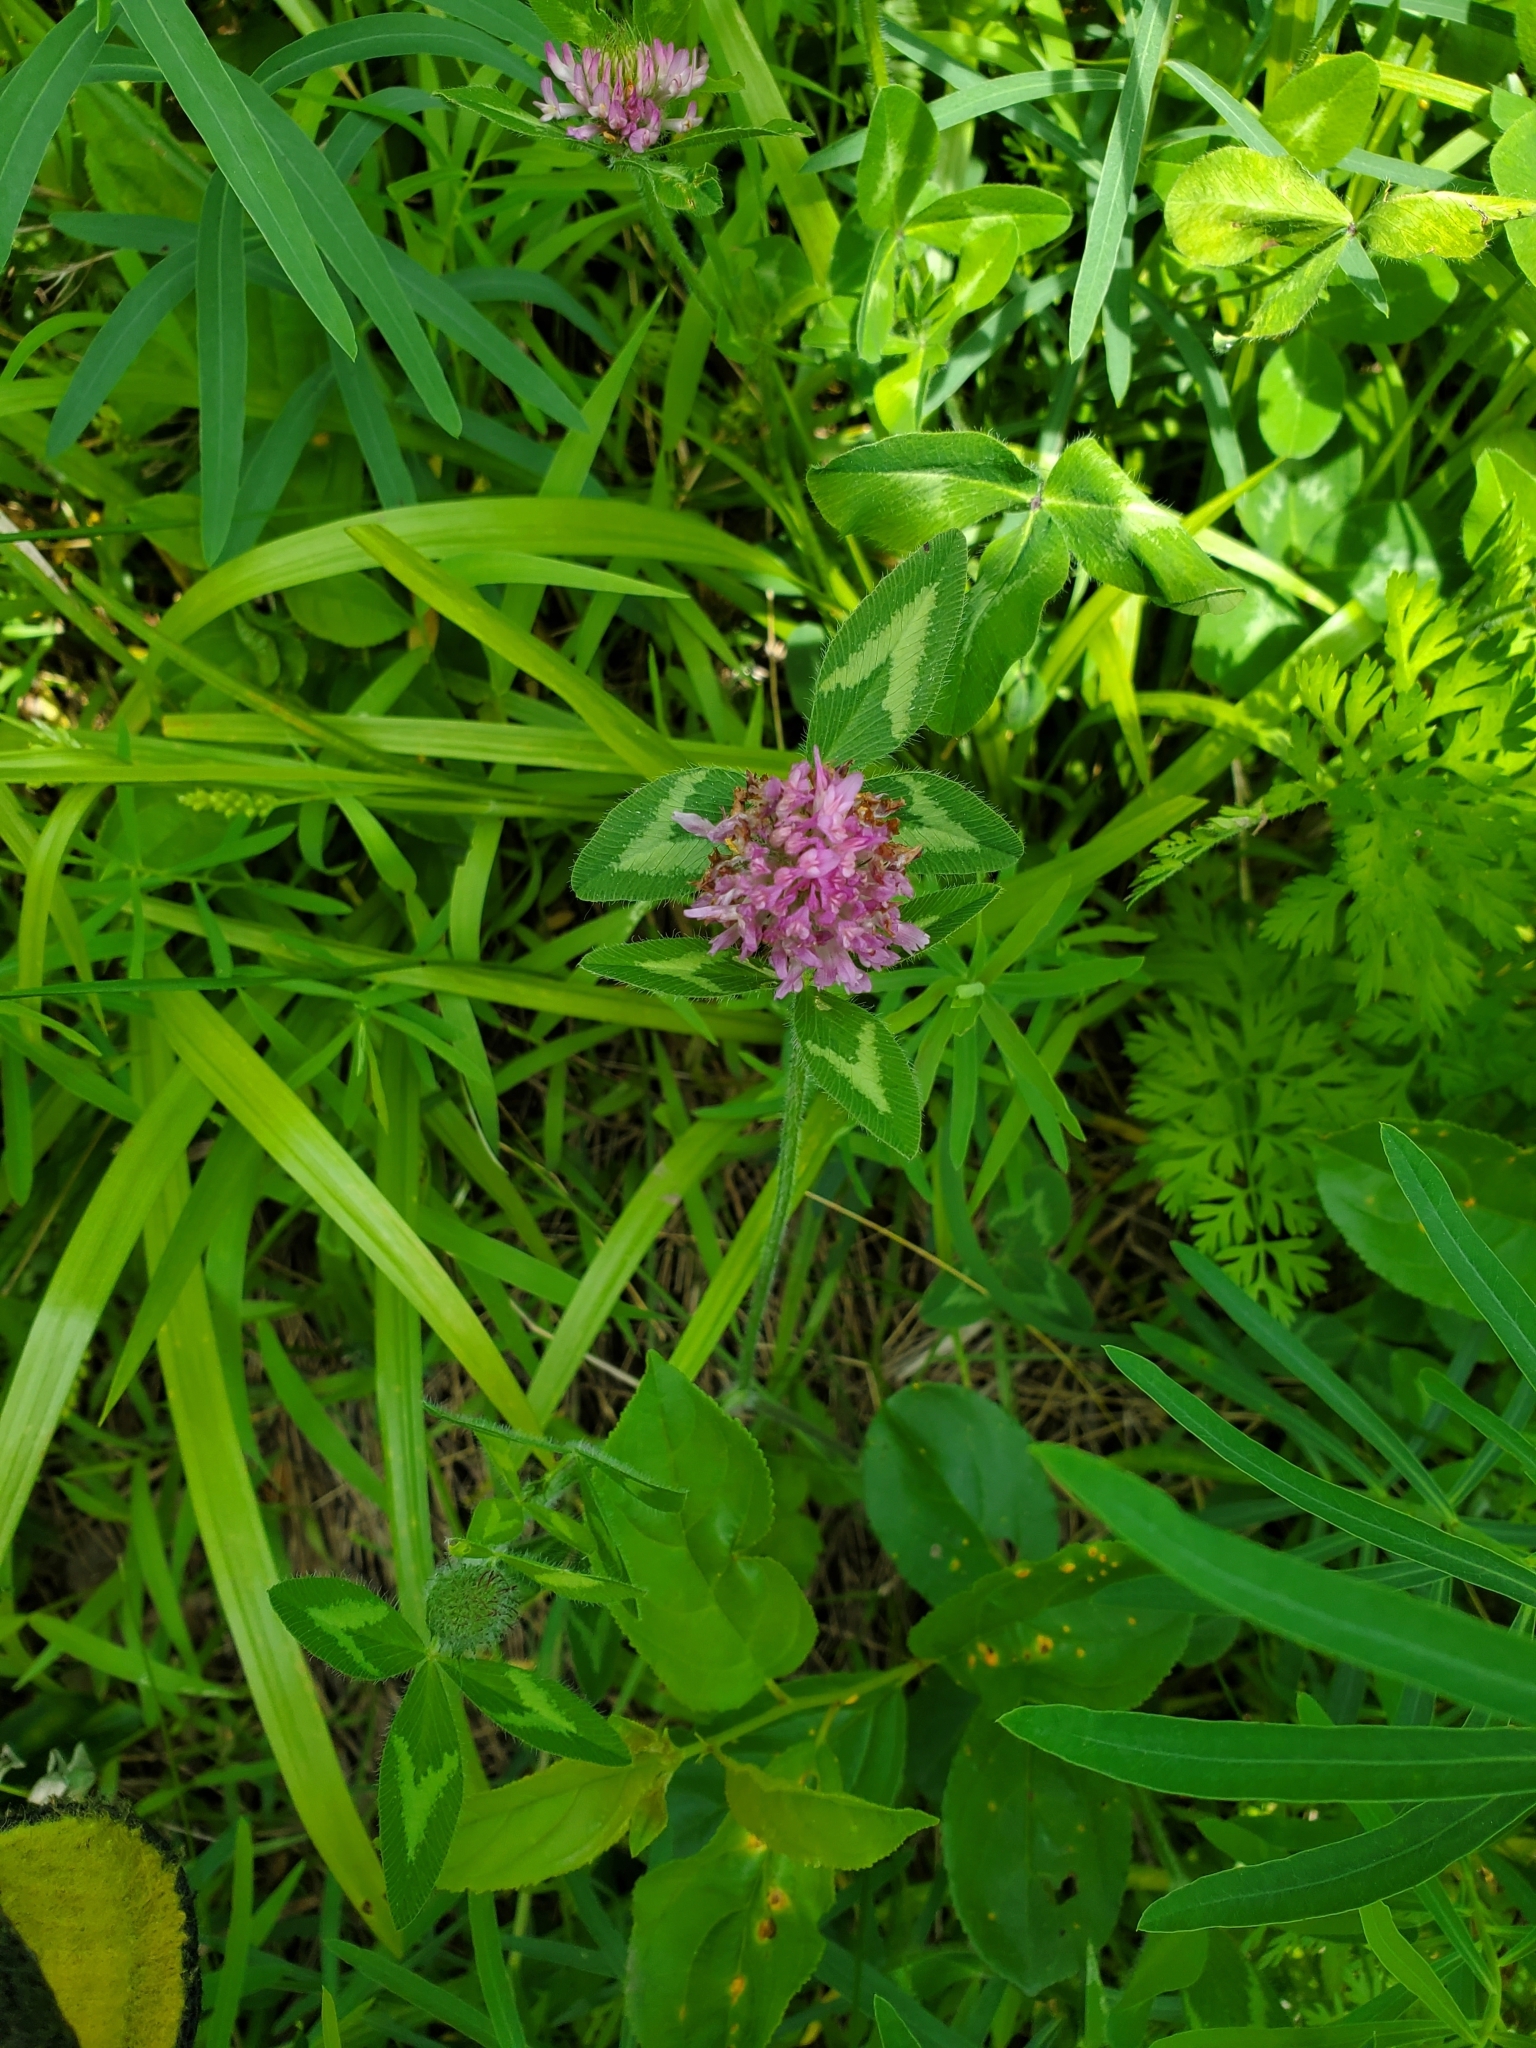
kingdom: Plantae
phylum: Tracheophyta
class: Magnoliopsida
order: Fabales
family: Fabaceae
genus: Trifolium
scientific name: Trifolium pratense
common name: Red clover
